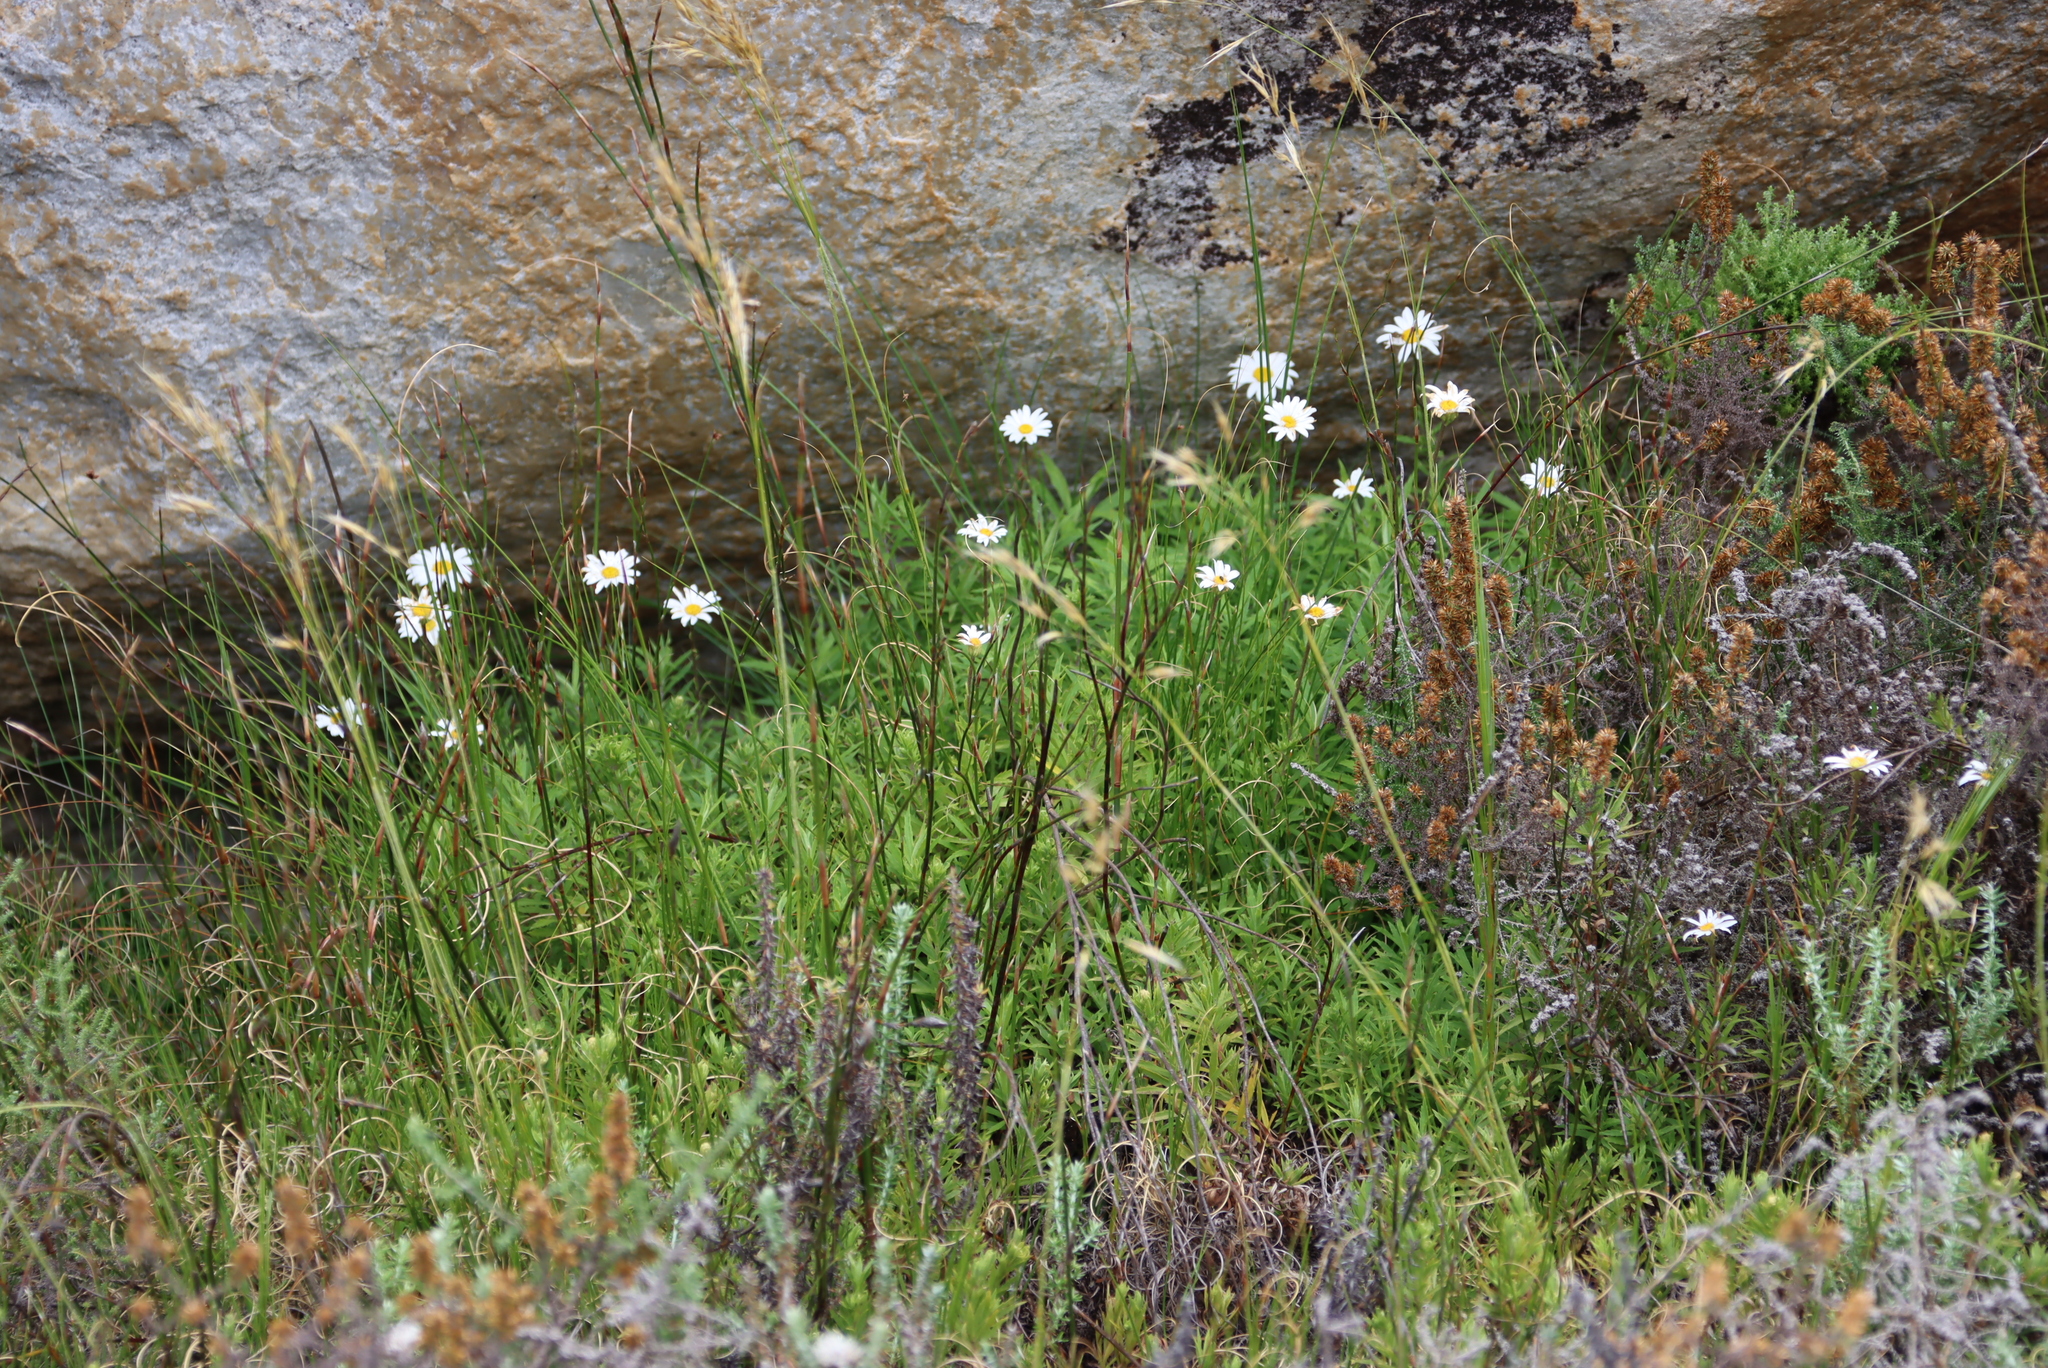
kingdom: Plantae
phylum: Tracheophyta
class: Magnoliopsida
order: Asterales
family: Asteraceae
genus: Osmitopsis
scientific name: Osmitopsis osmitoides
